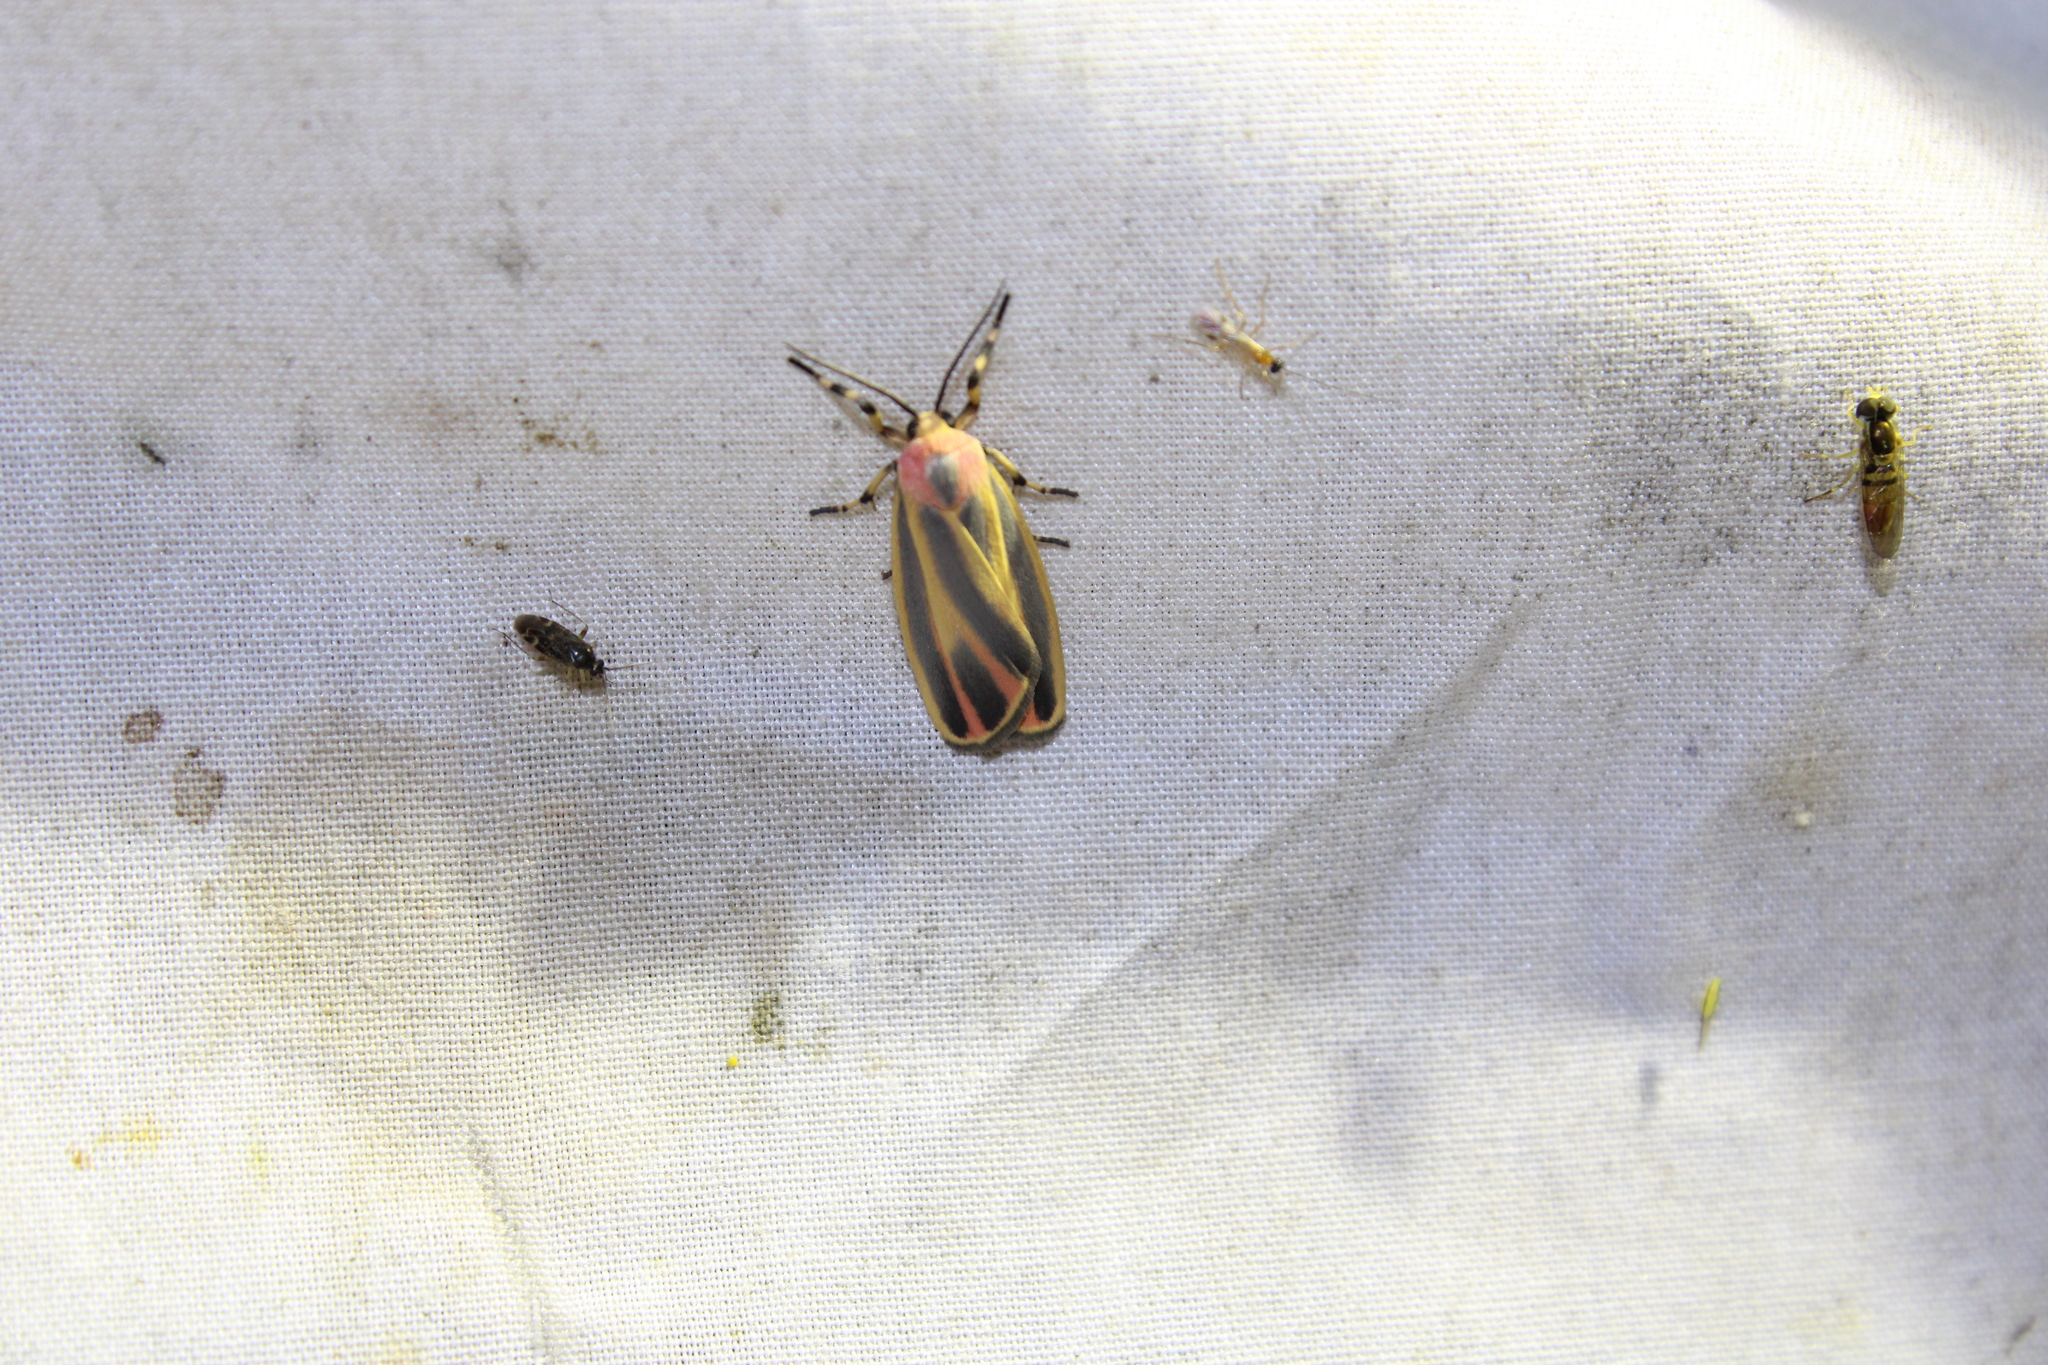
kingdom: Animalia
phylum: Arthropoda
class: Insecta
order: Lepidoptera
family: Erebidae
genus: Hypoprepia
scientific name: Hypoprepia fucosa
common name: Painted lichen moth
